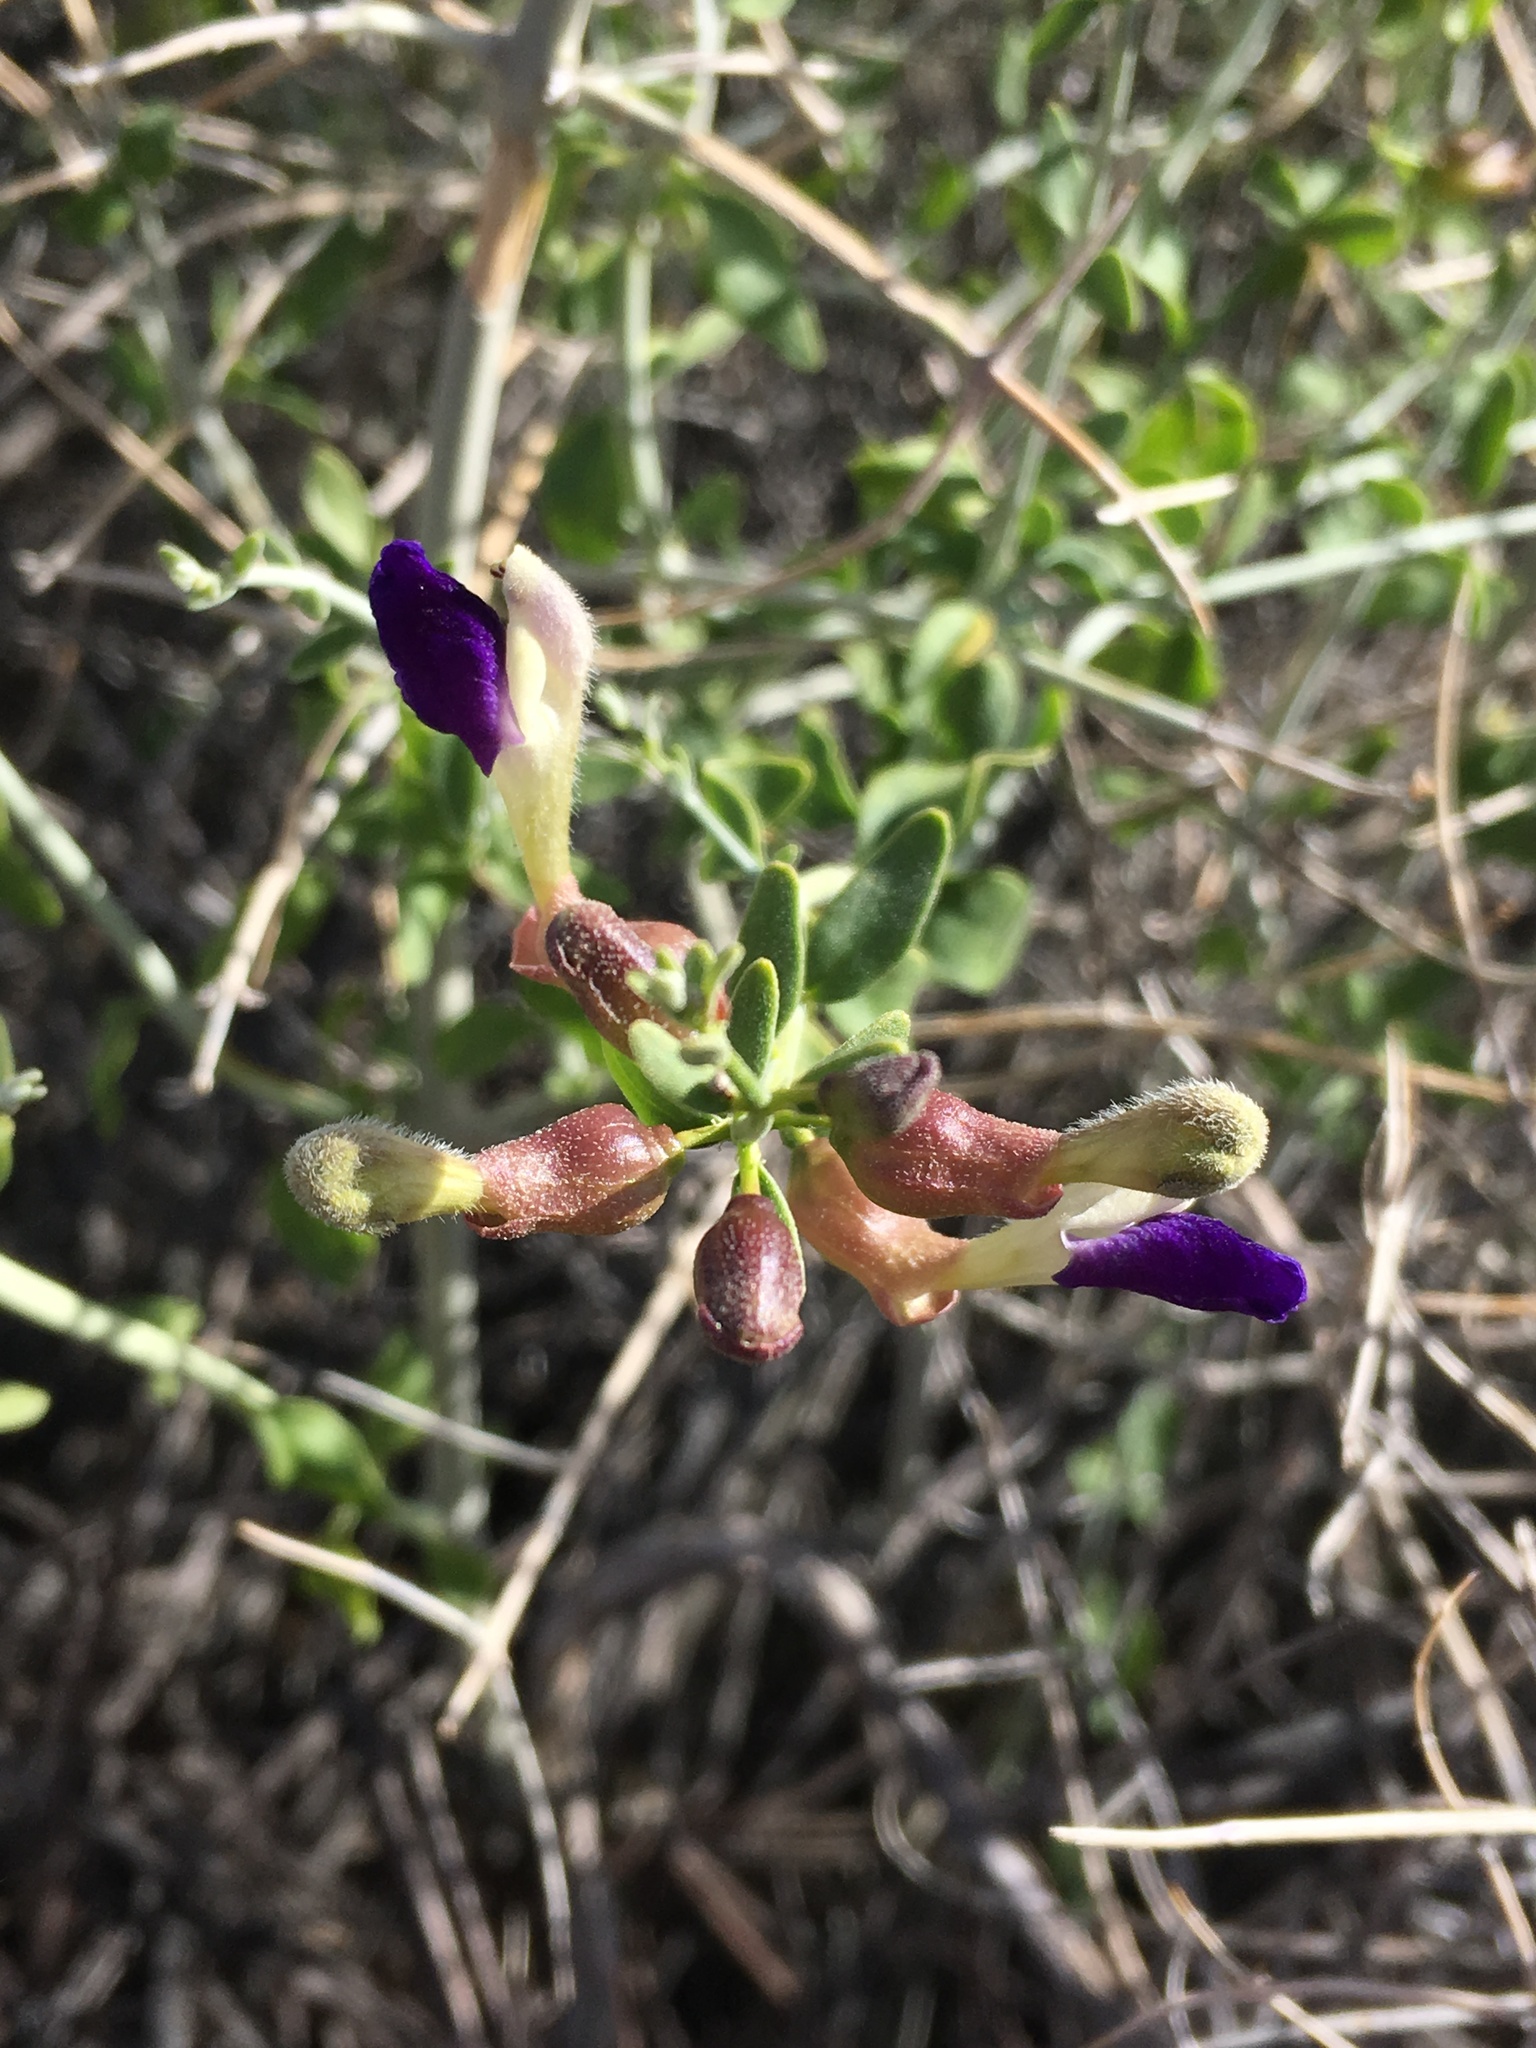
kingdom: Plantae
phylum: Tracheophyta
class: Magnoliopsida
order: Lamiales
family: Lamiaceae
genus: Scutellaria
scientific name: Scutellaria mexicana
